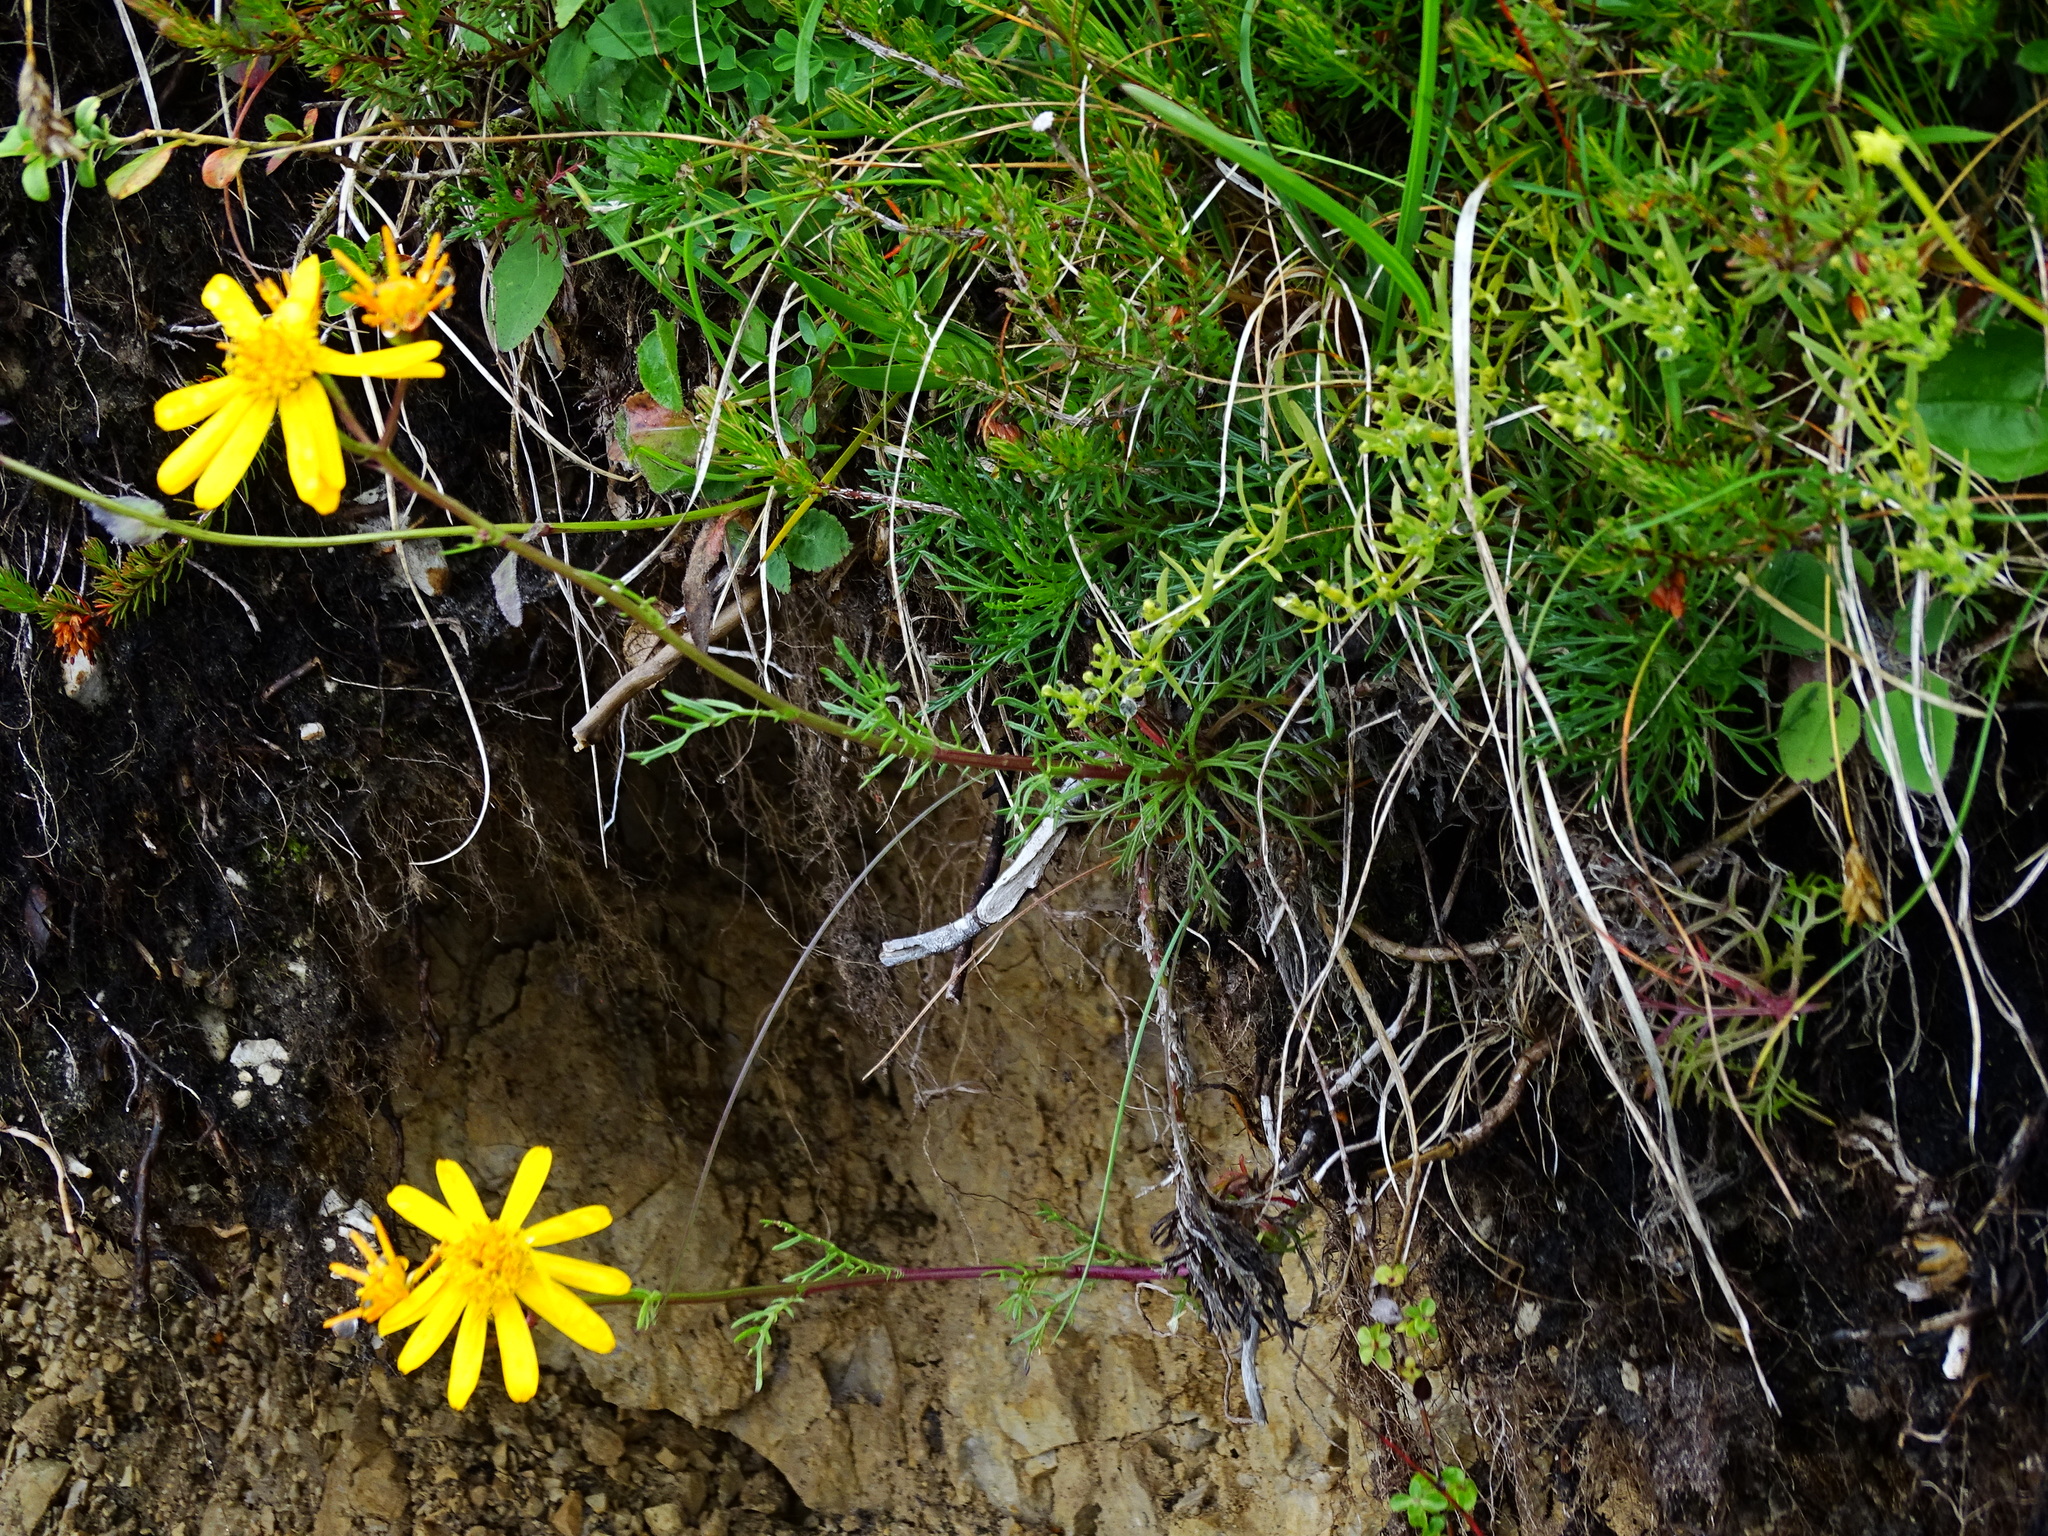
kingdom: Plantae
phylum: Tracheophyta
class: Magnoliopsida
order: Asterales
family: Asteraceae
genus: Jacobaea
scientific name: Jacobaea abrotanifolia
